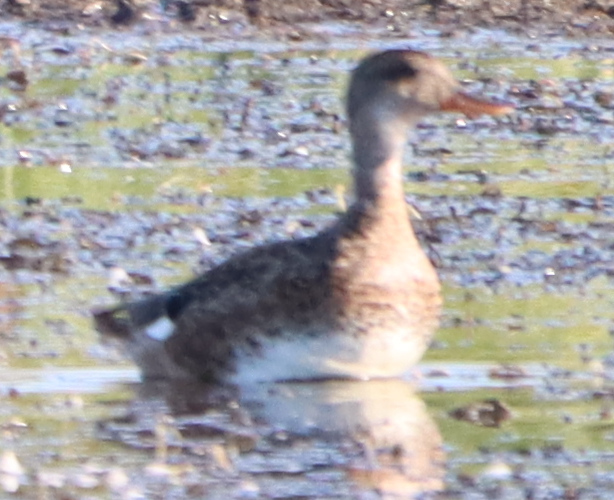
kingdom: Animalia
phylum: Chordata
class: Aves
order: Anseriformes
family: Anatidae
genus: Mareca
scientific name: Mareca strepera
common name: Gadwall
